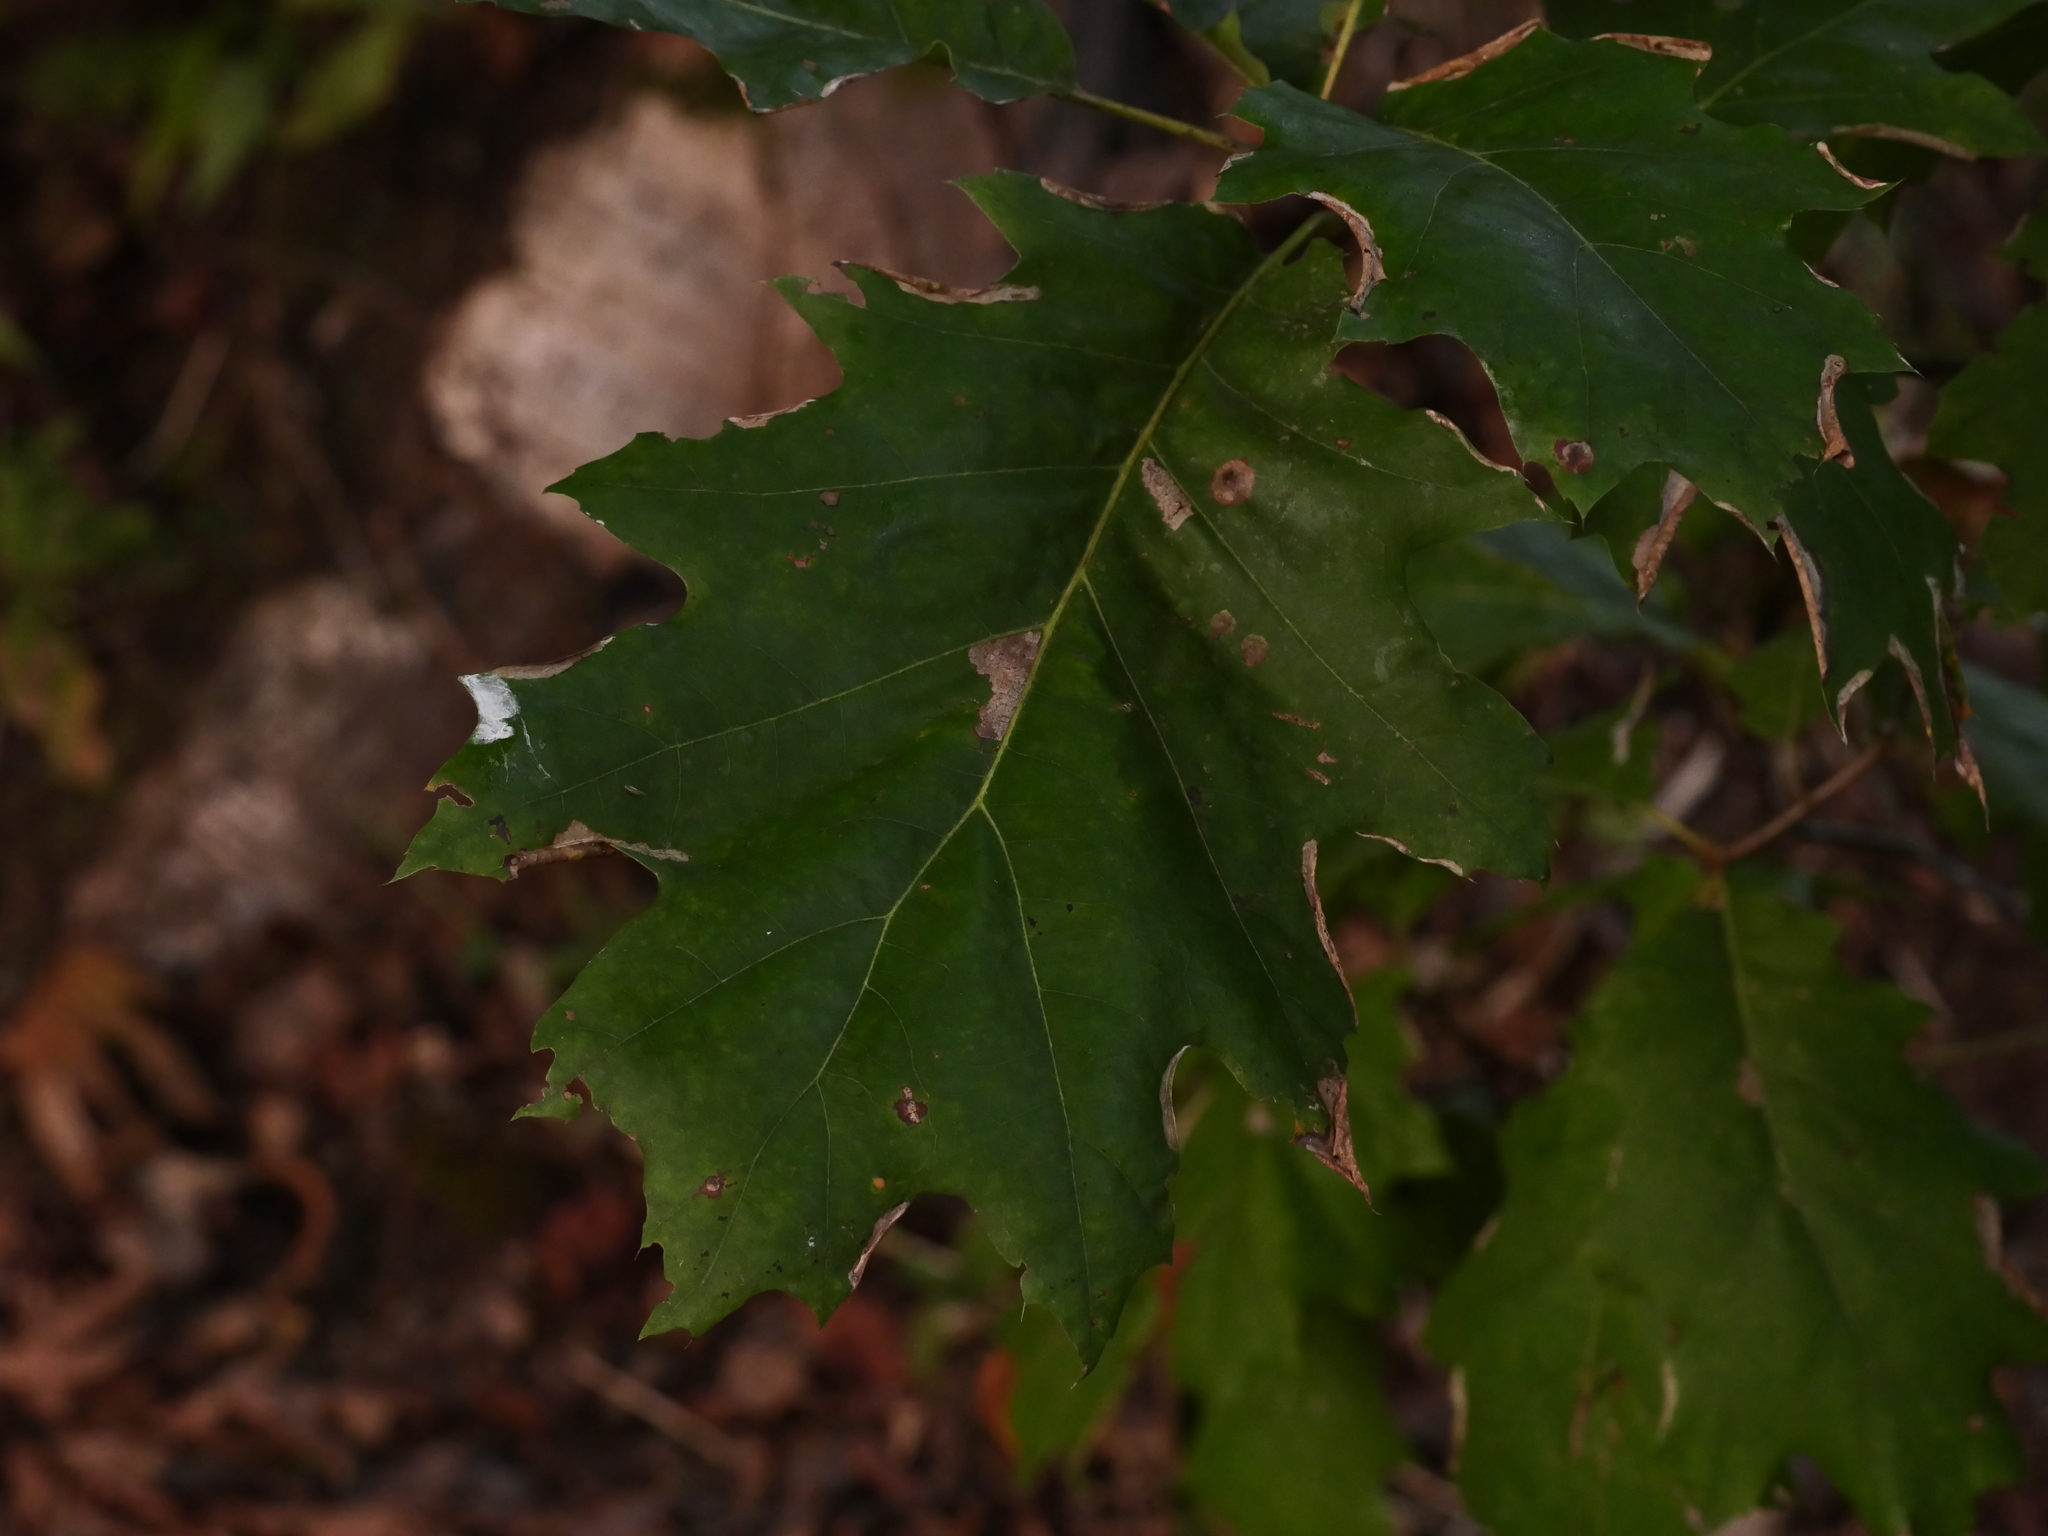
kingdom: Plantae
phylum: Tracheophyta
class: Magnoliopsida
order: Fagales
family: Fagaceae
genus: Quercus
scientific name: Quercus rubra
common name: Red oak
